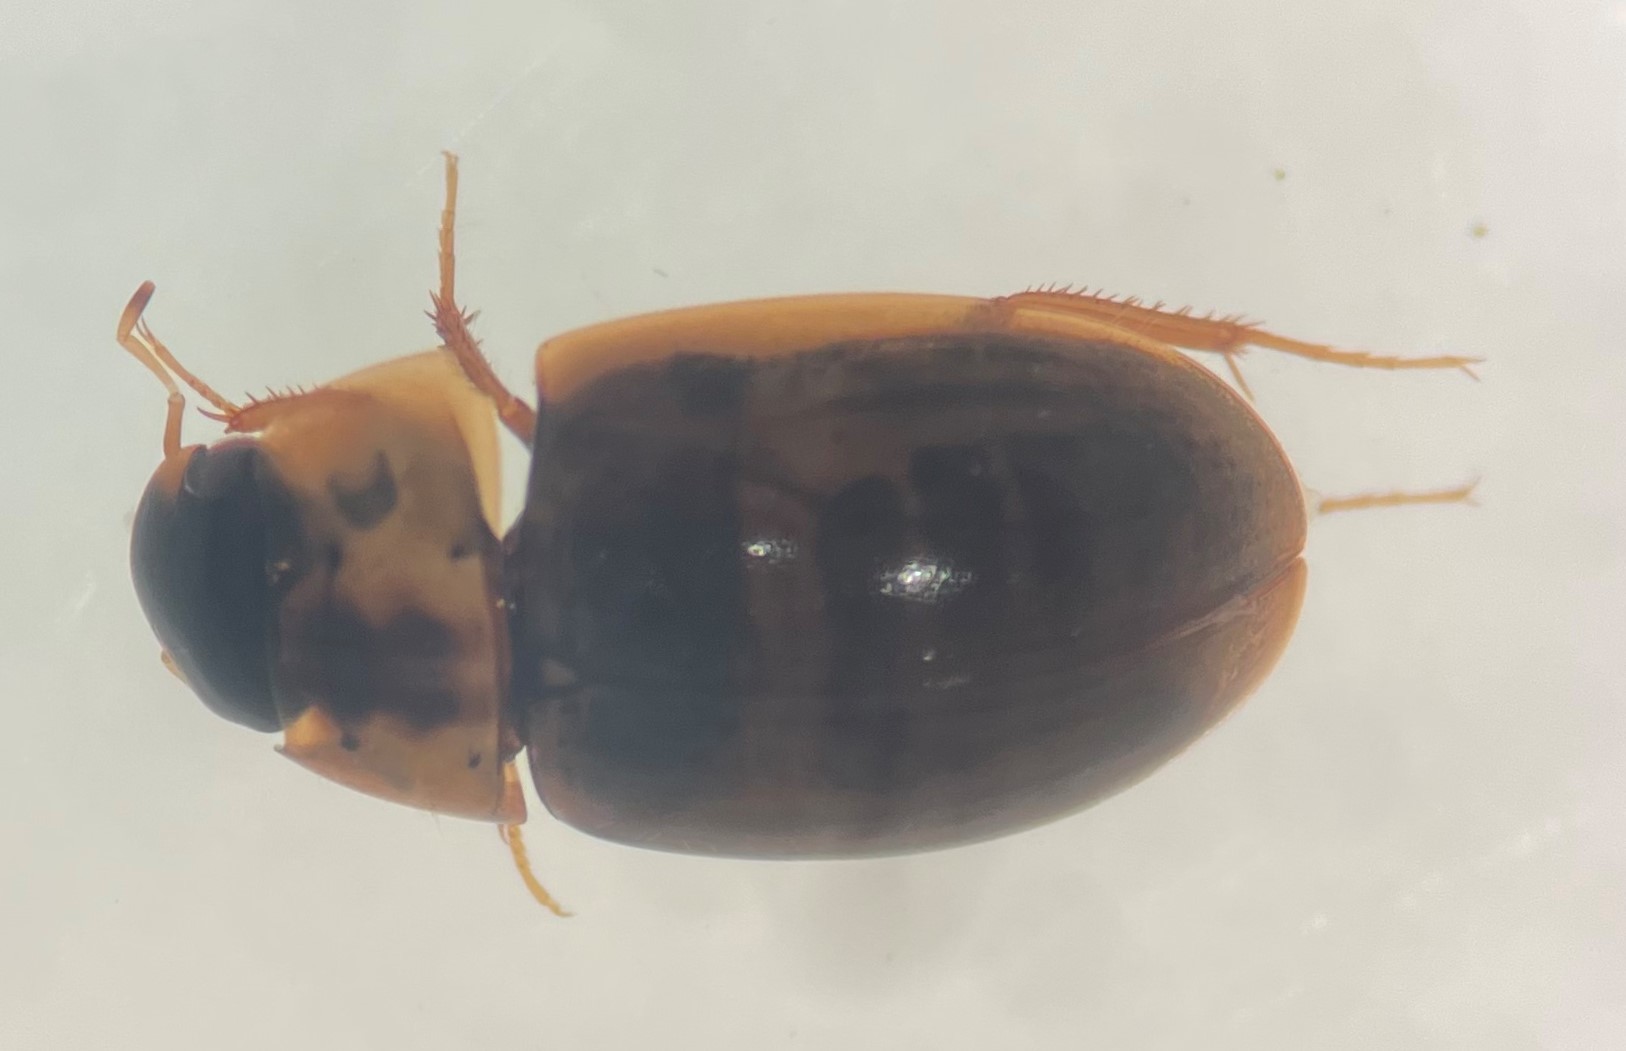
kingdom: Animalia
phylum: Arthropoda
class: Insecta
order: Coleoptera
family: Hydrophilidae
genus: Enochrus
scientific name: Enochrus pygmaeus
